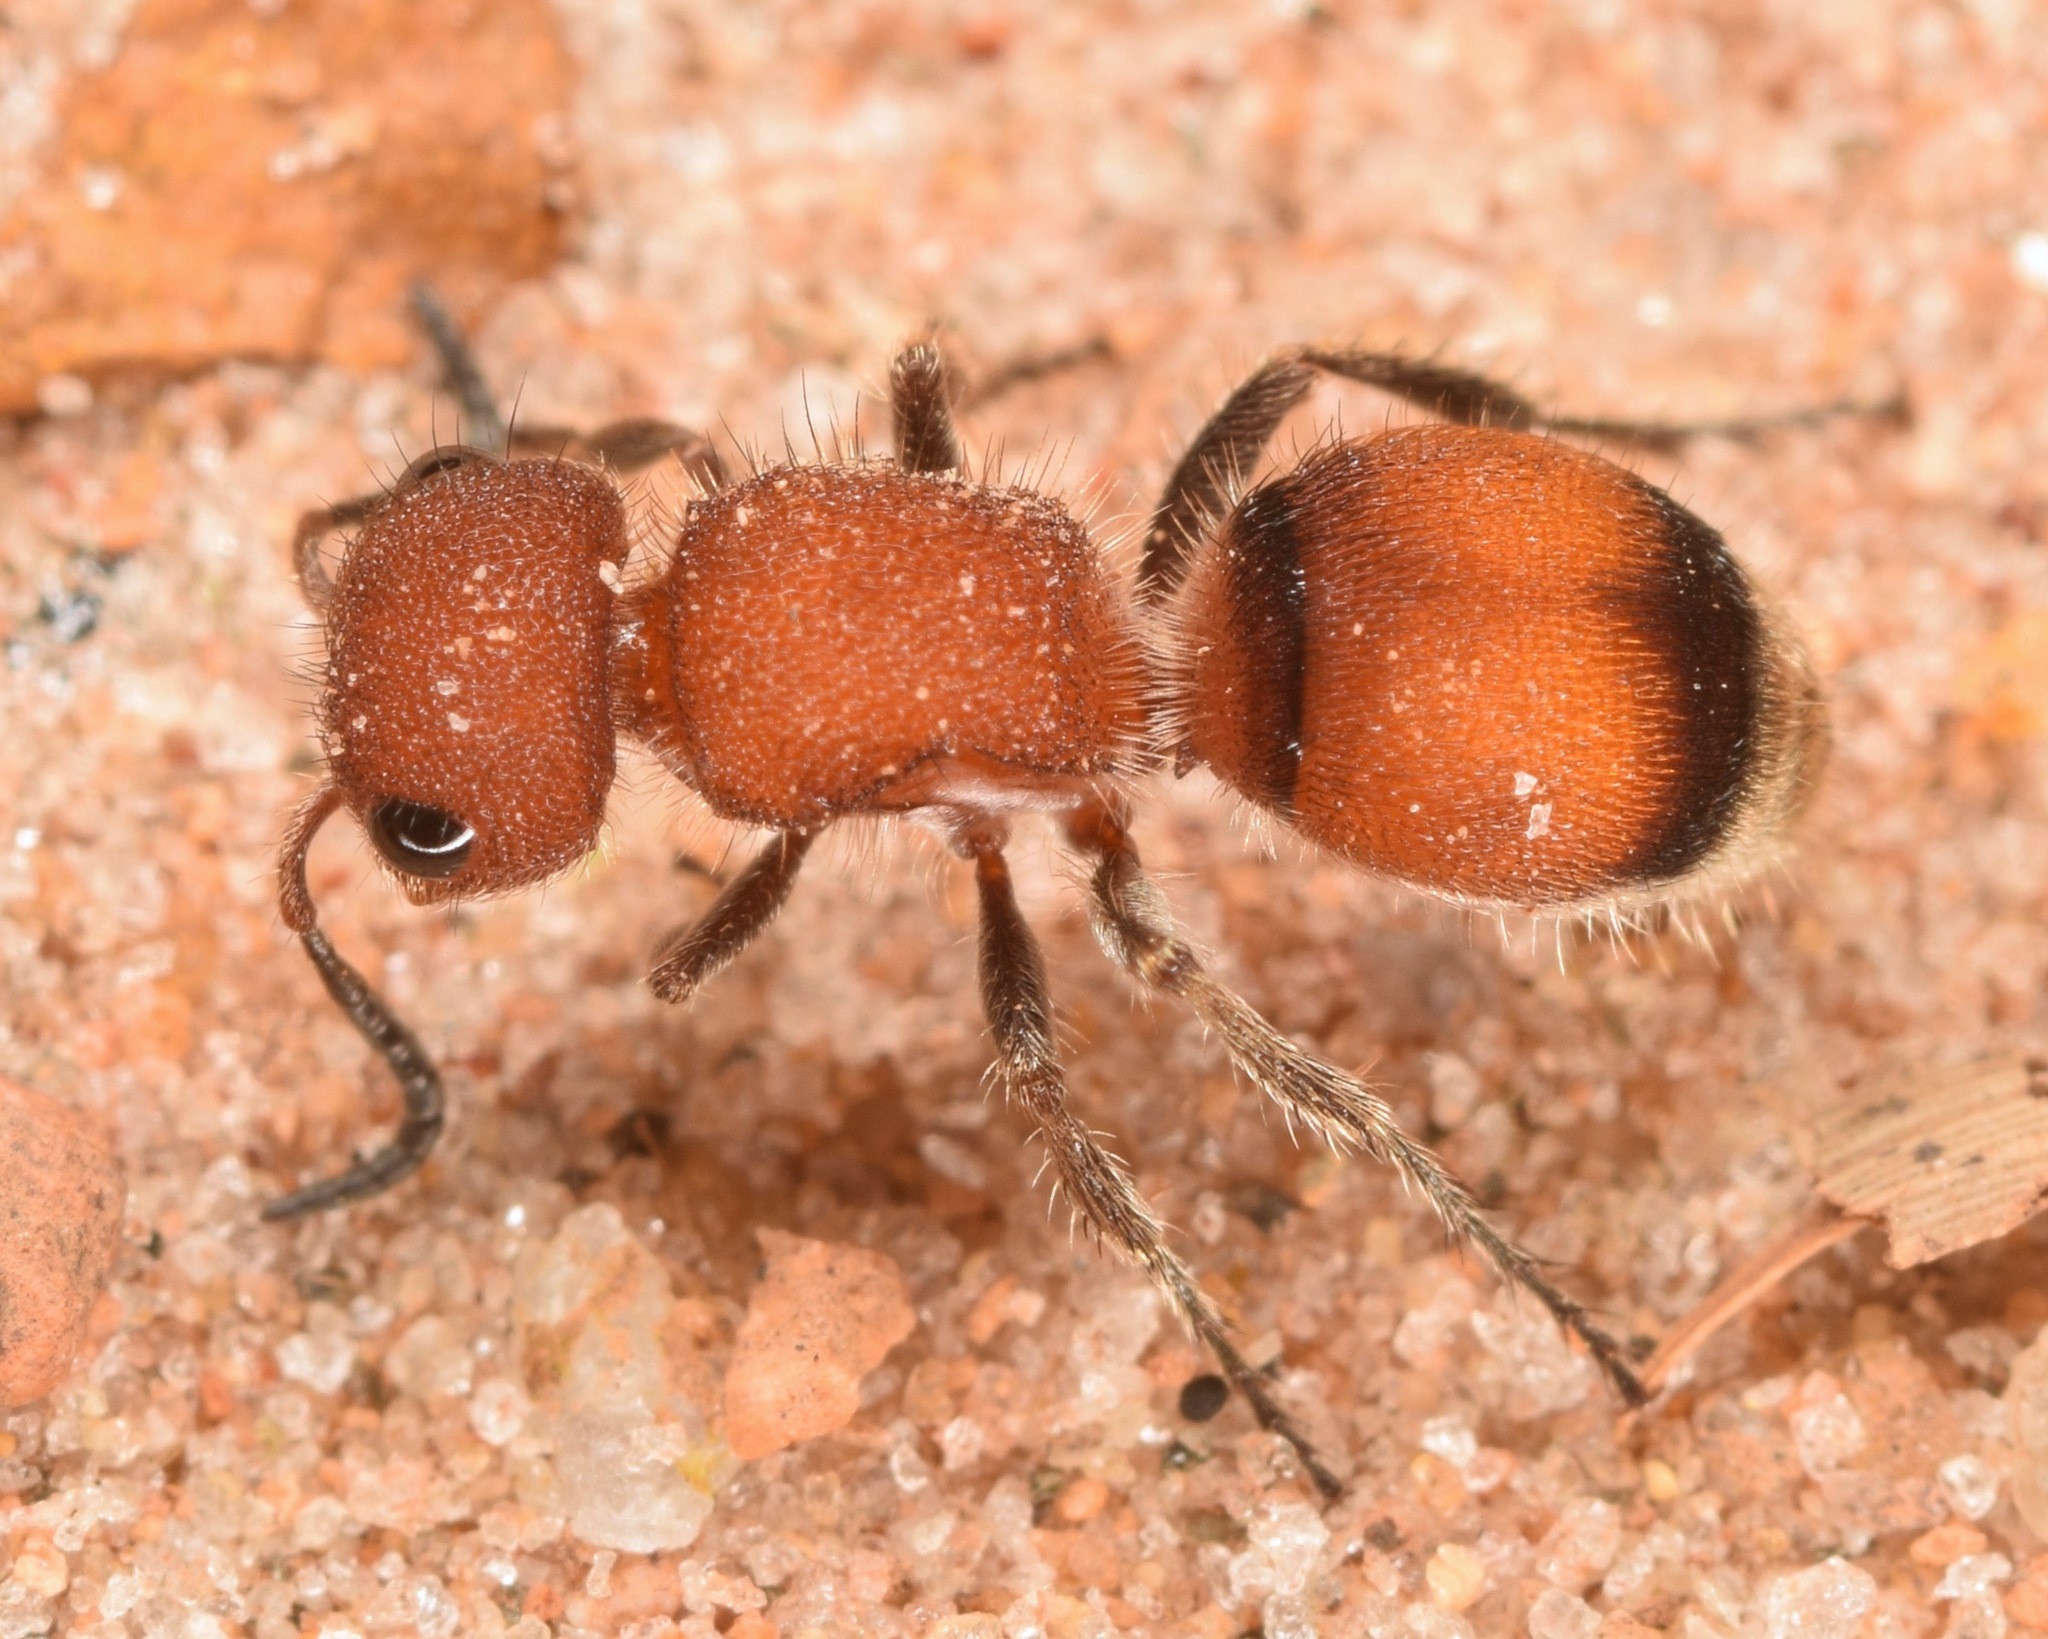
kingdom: Animalia
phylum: Arthropoda
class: Insecta
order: Hymenoptera
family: Mutillidae
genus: Pseudomethoca
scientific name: Pseudomethoca
